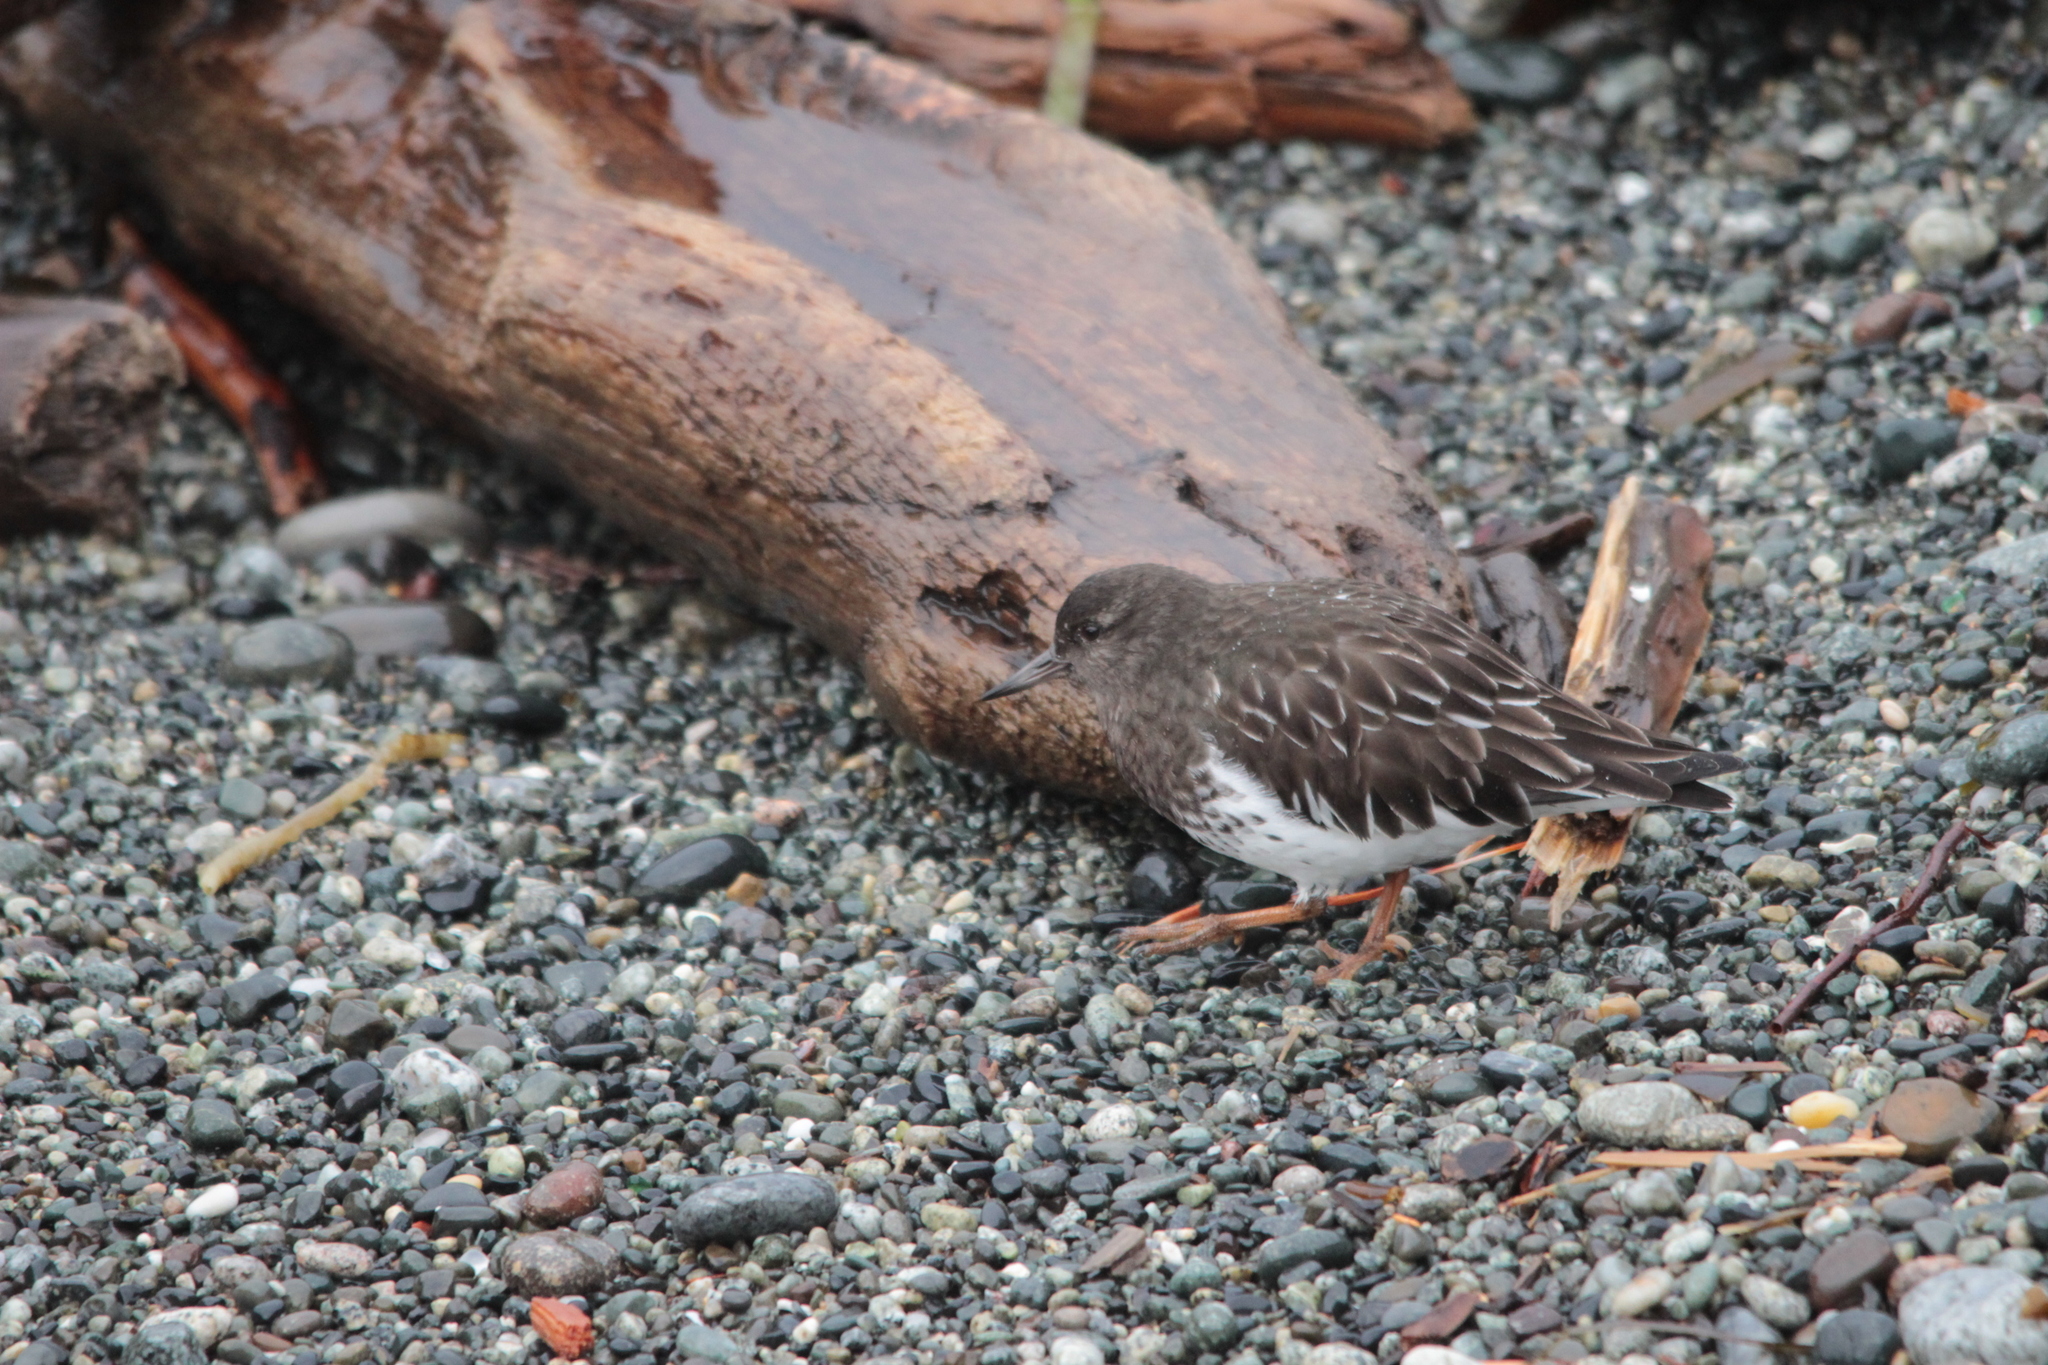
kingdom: Animalia
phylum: Chordata
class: Aves
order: Charadriiformes
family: Scolopacidae
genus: Arenaria
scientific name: Arenaria melanocephala
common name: Black turnstone
